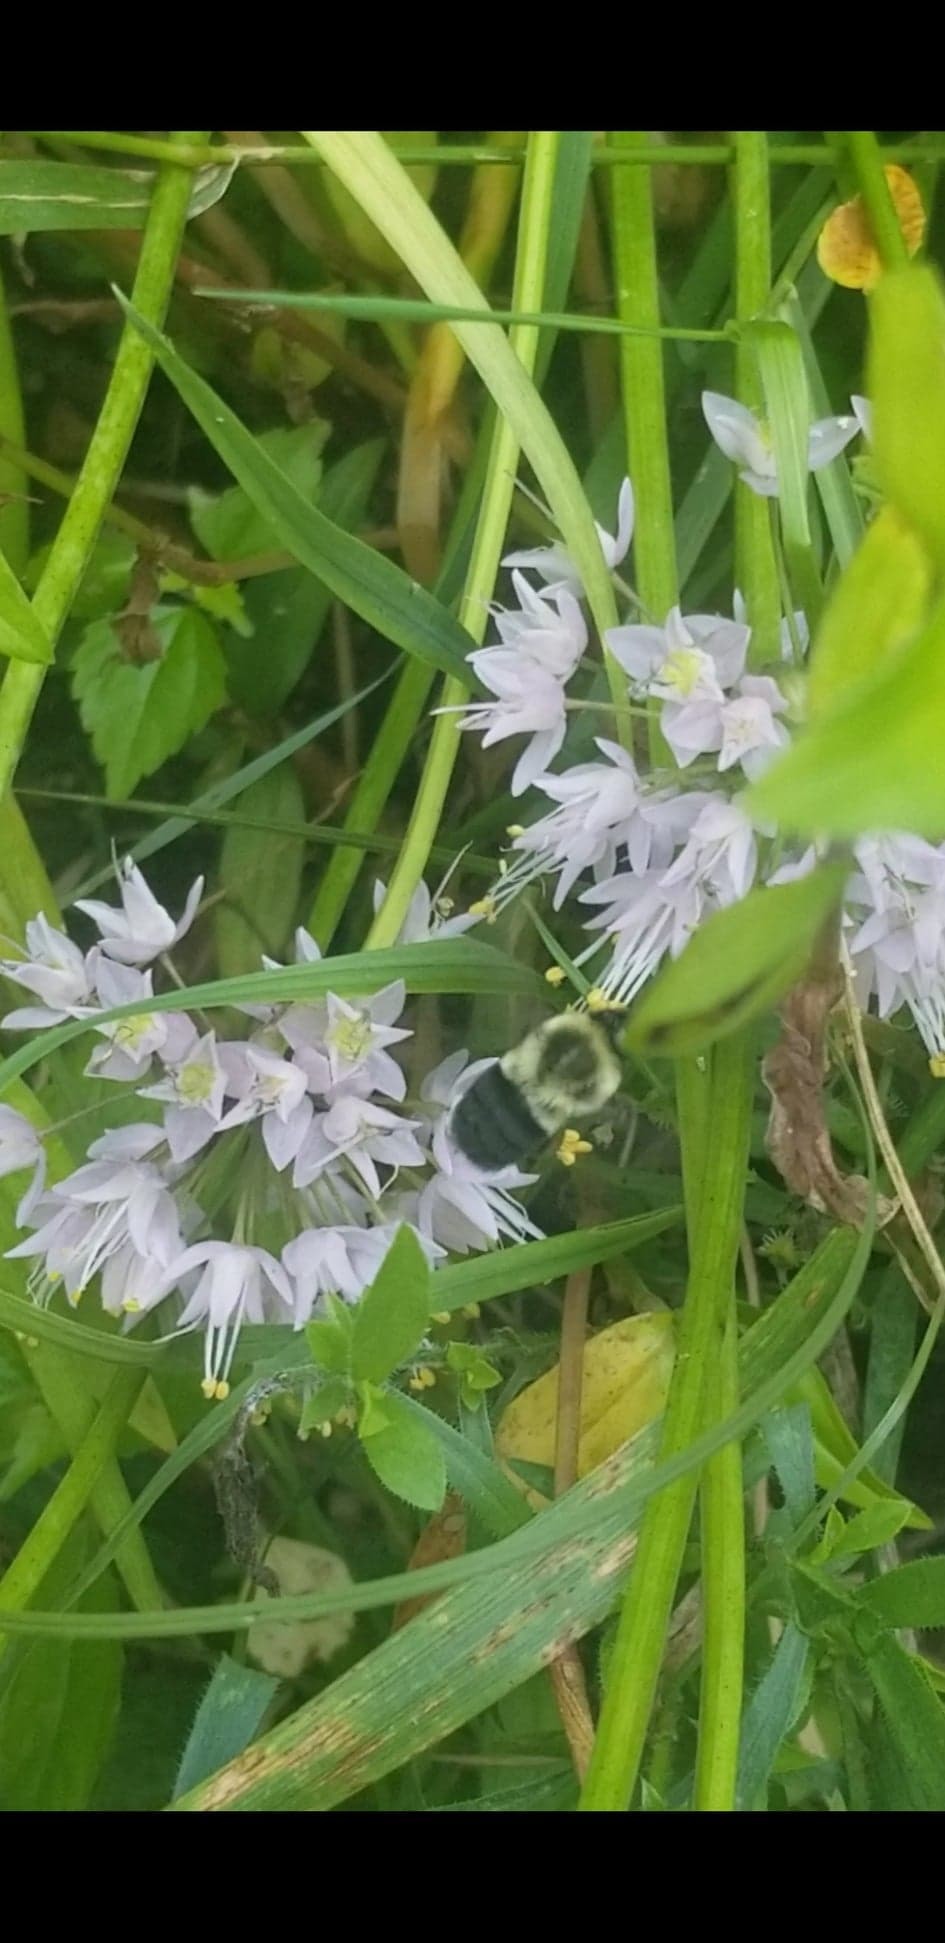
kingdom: Animalia
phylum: Arthropoda
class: Insecta
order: Hymenoptera
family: Apidae
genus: Bombus
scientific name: Bombus impatiens
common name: Common eastern bumble bee
